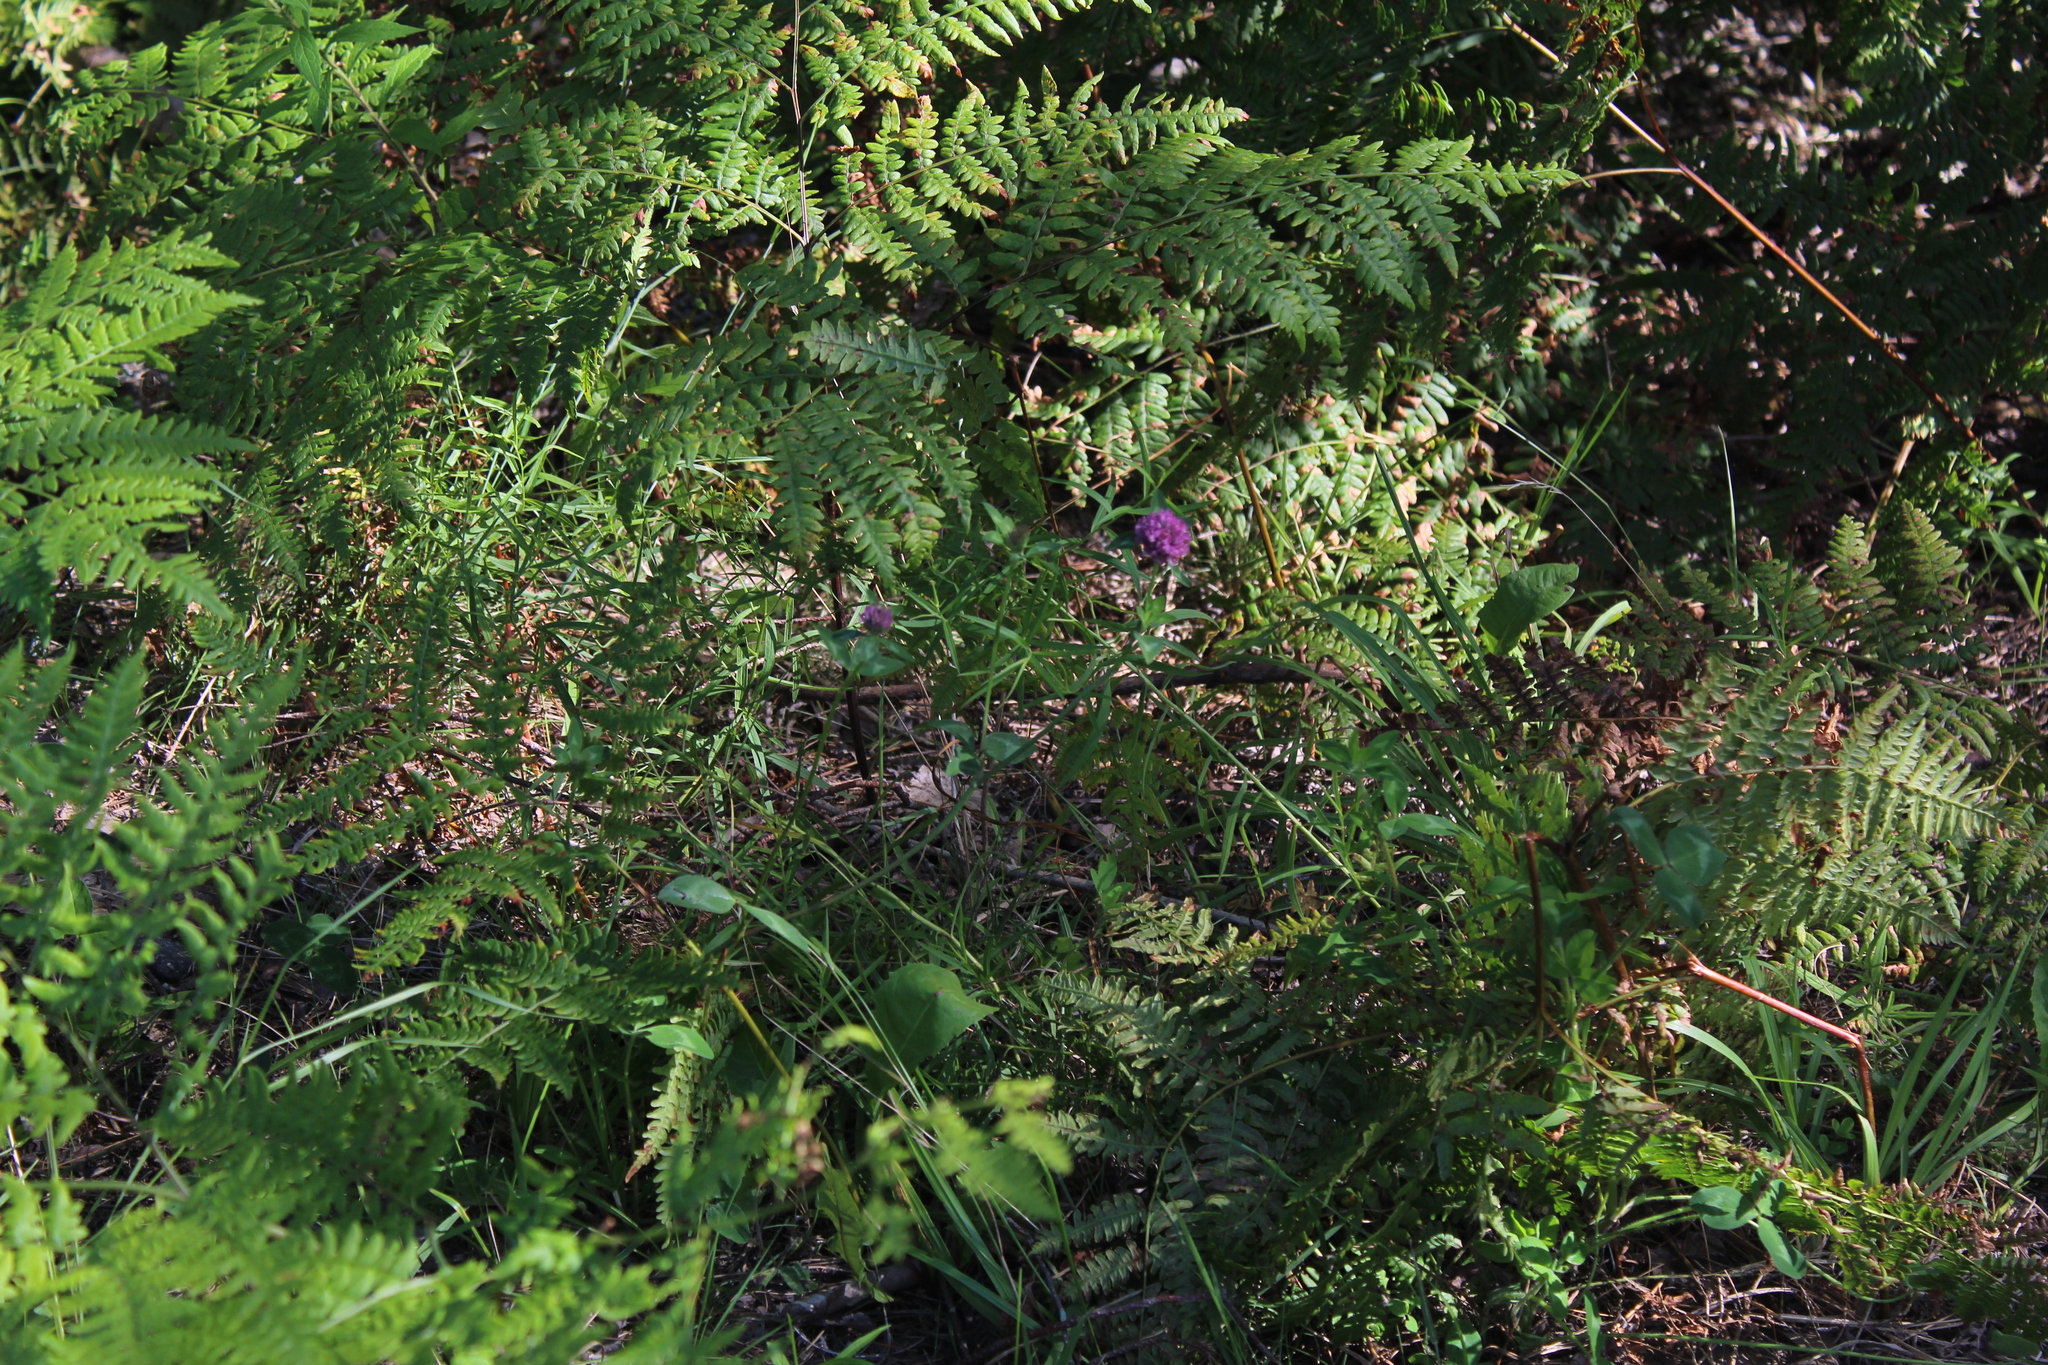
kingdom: Plantae
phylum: Tracheophyta
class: Magnoliopsida
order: Fabales
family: Fabaceae
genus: Trifolium
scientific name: Trifolium pratense
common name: Red clover
